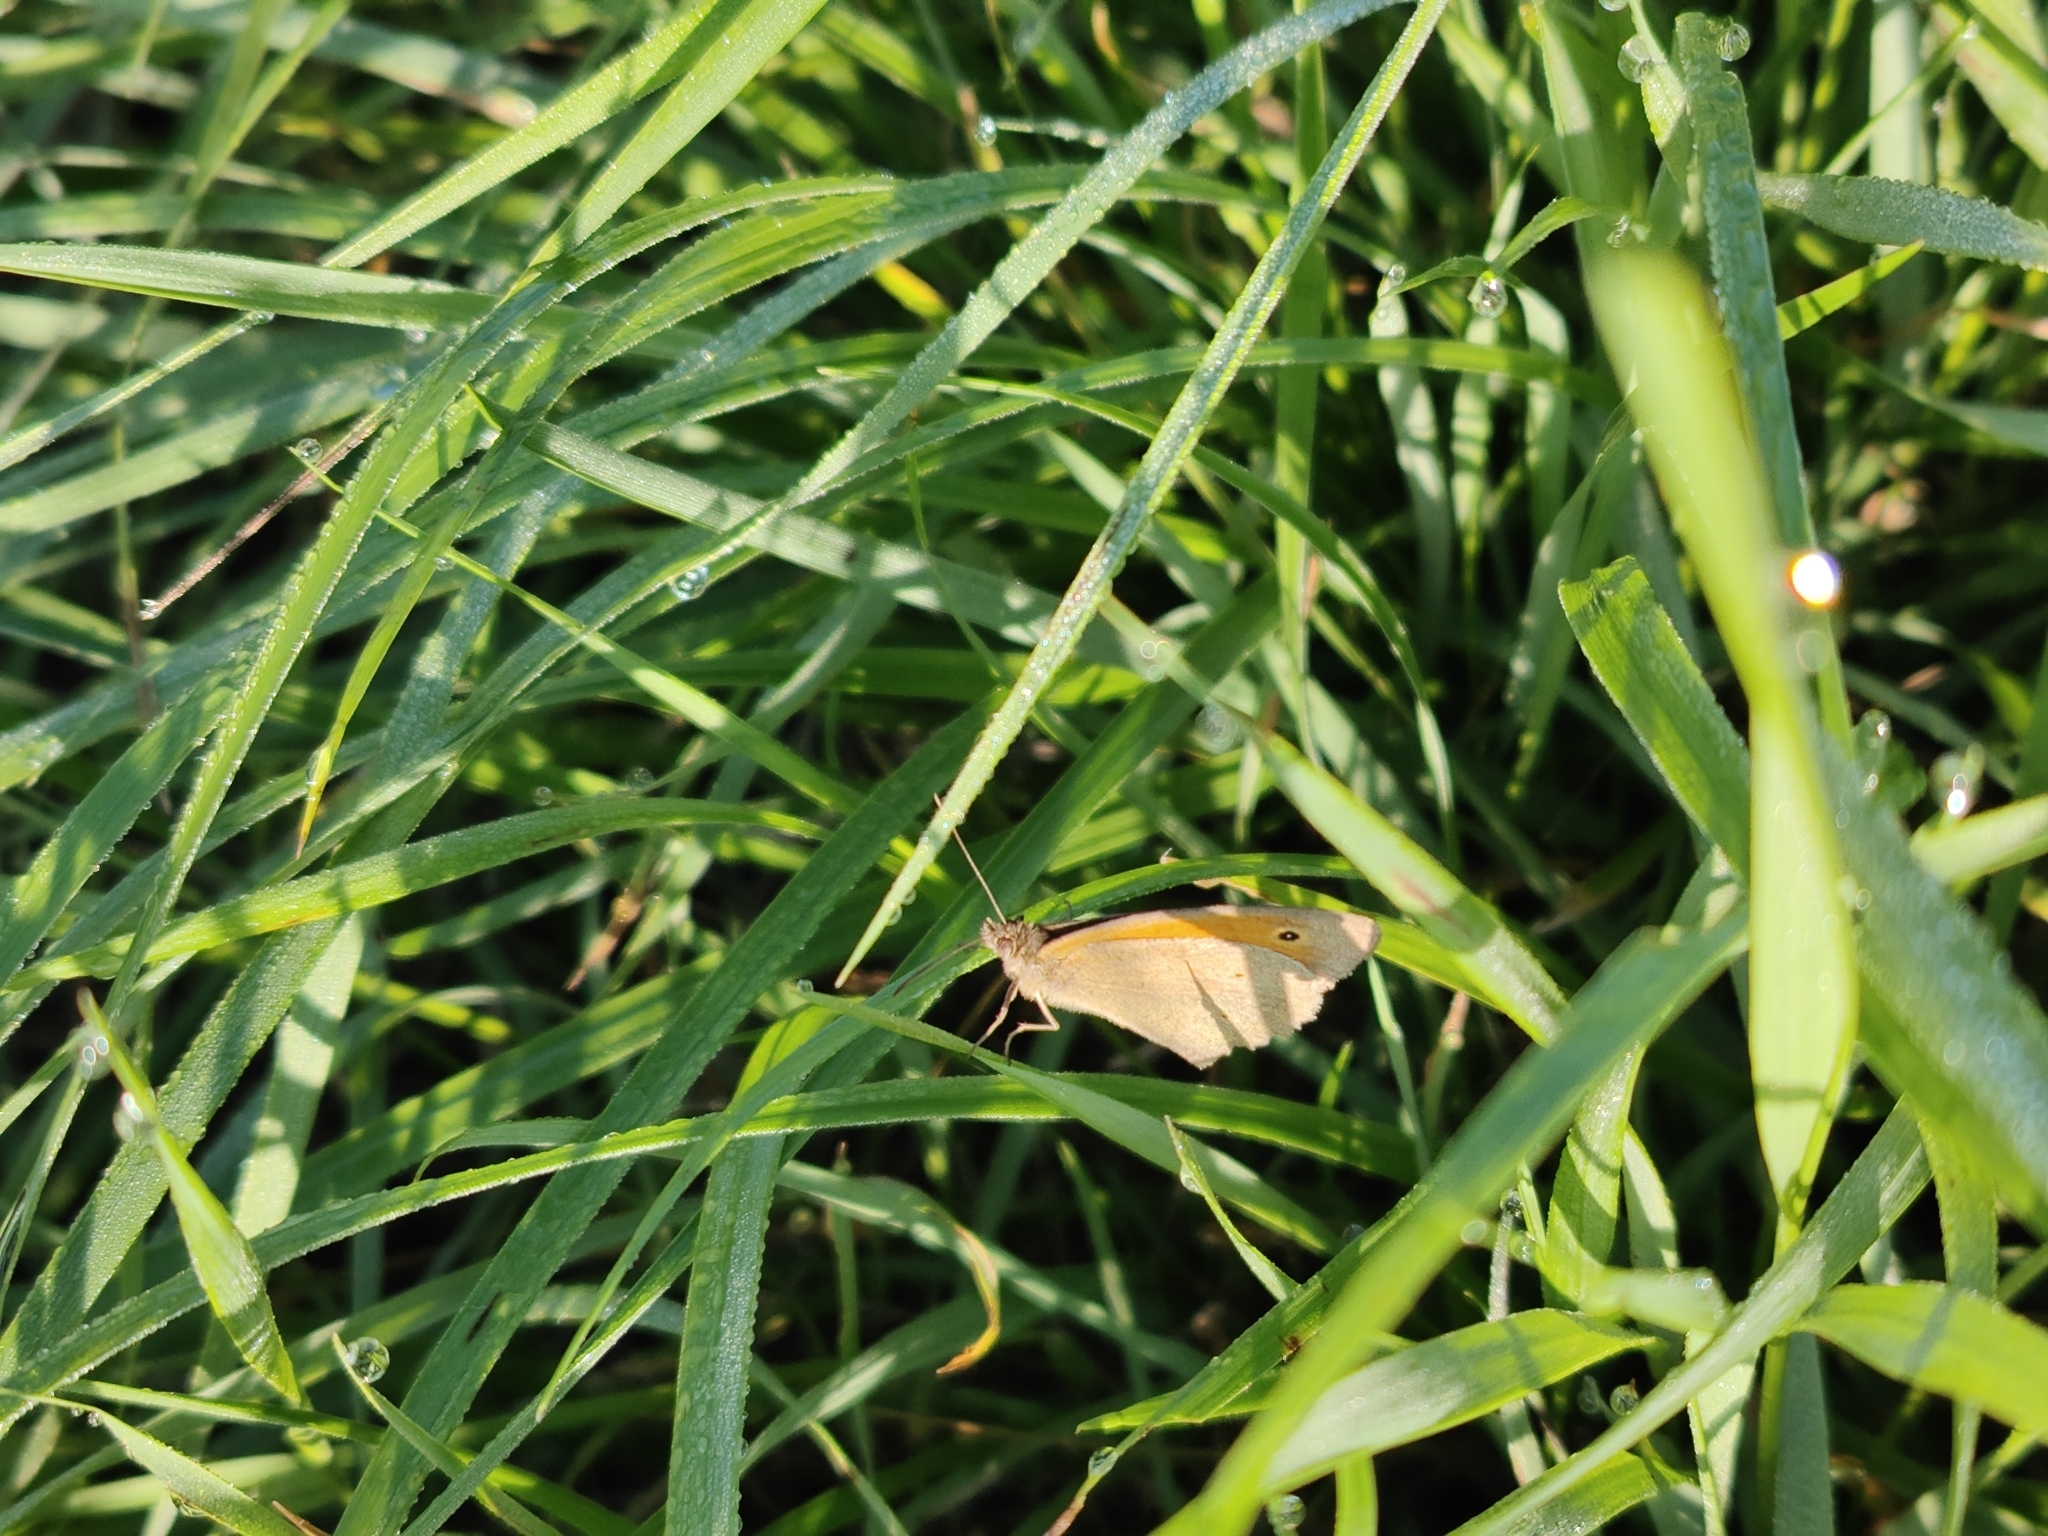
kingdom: Animalia
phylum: Arthropoda
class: Insecta
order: Lepidoptera
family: Nymphalidae
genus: Maniola
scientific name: Maniola jurtina
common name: Meadow brown
